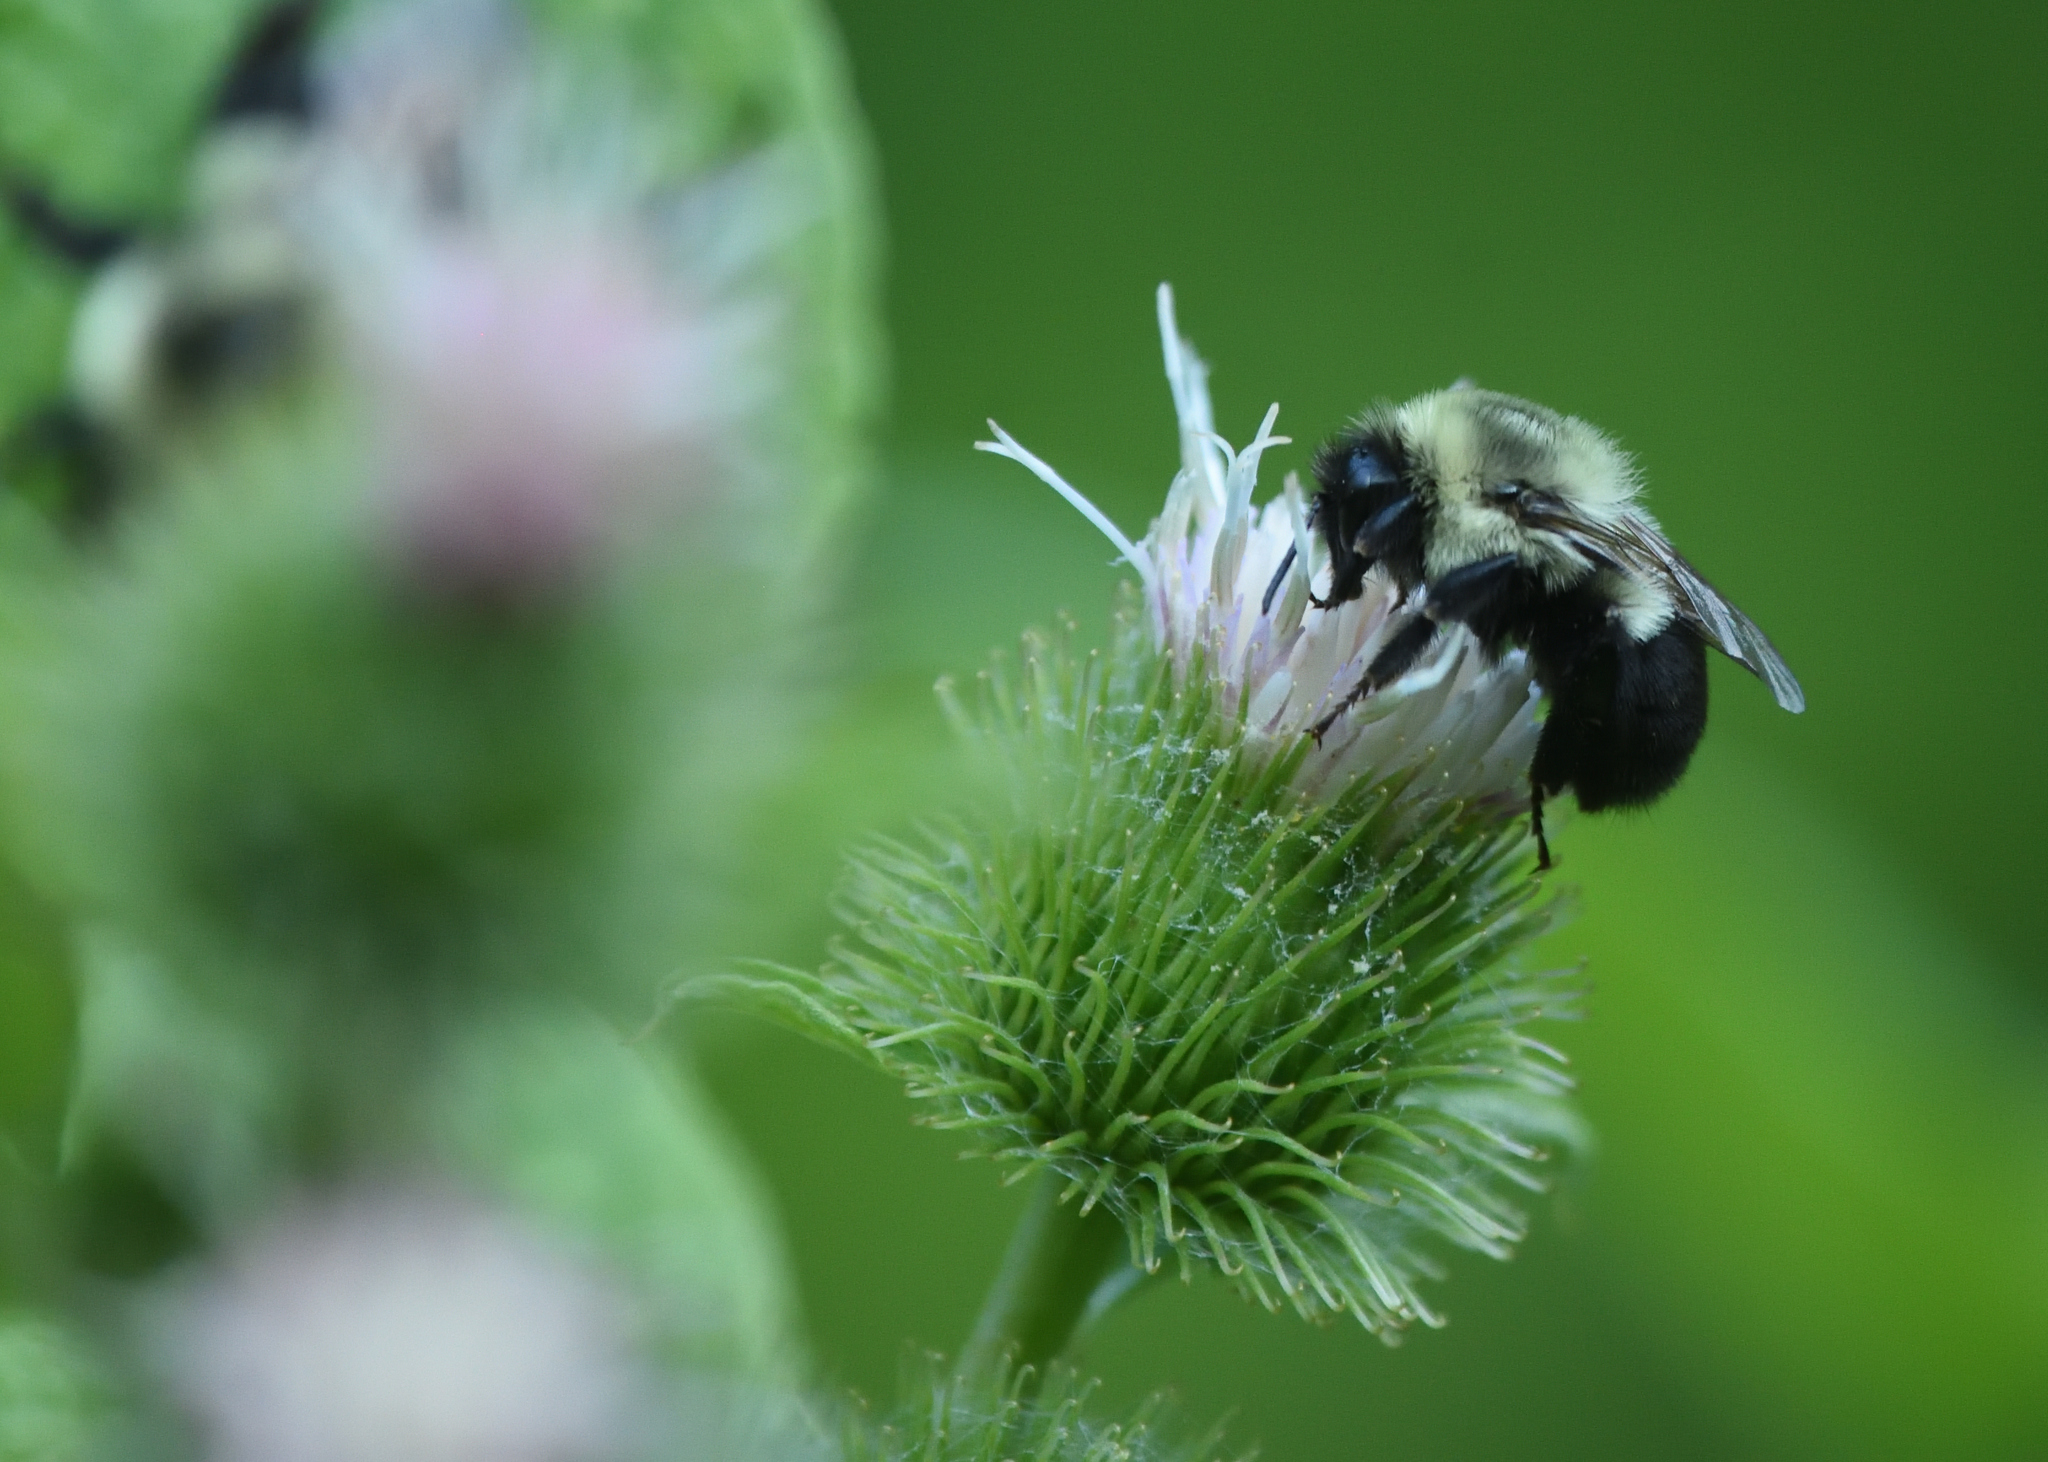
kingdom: Animalia
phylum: Arthropoda
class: Insecta
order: Hymenoptera
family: Apidae
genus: Bombus
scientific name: Bombus impatiens
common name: Common eastern bumble bee
